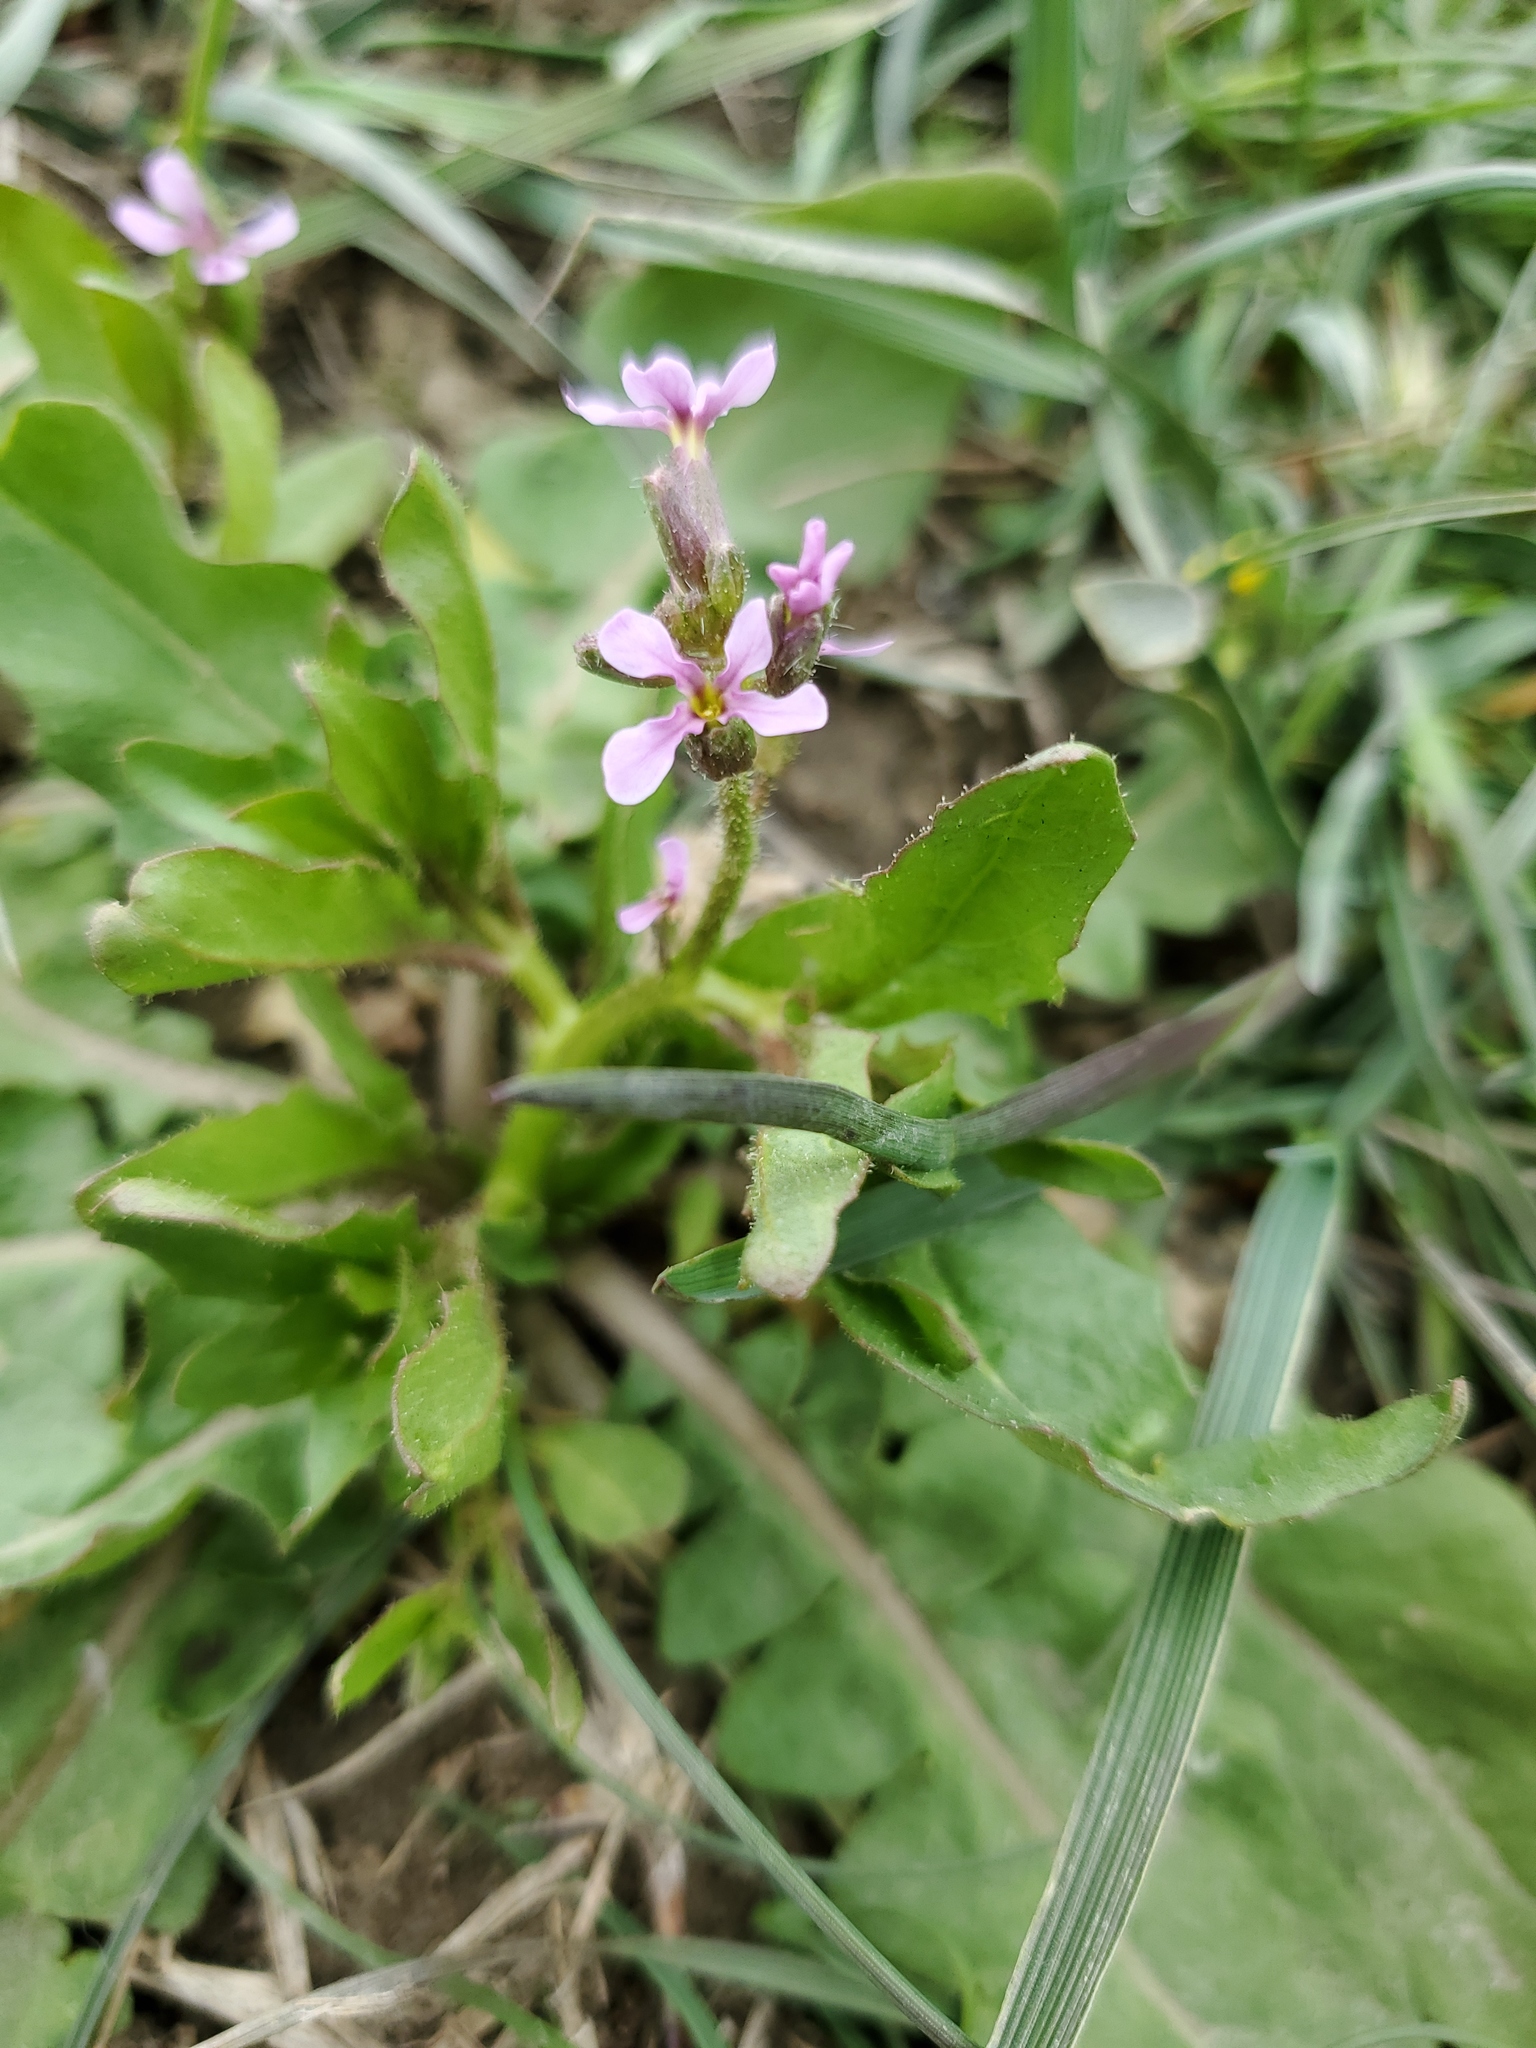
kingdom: Plantae
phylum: Tracheophyta
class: Magnoliopsida
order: Brassicales
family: Brassicaceae
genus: Chorispora
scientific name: Chorispora tenella
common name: Crossflower
